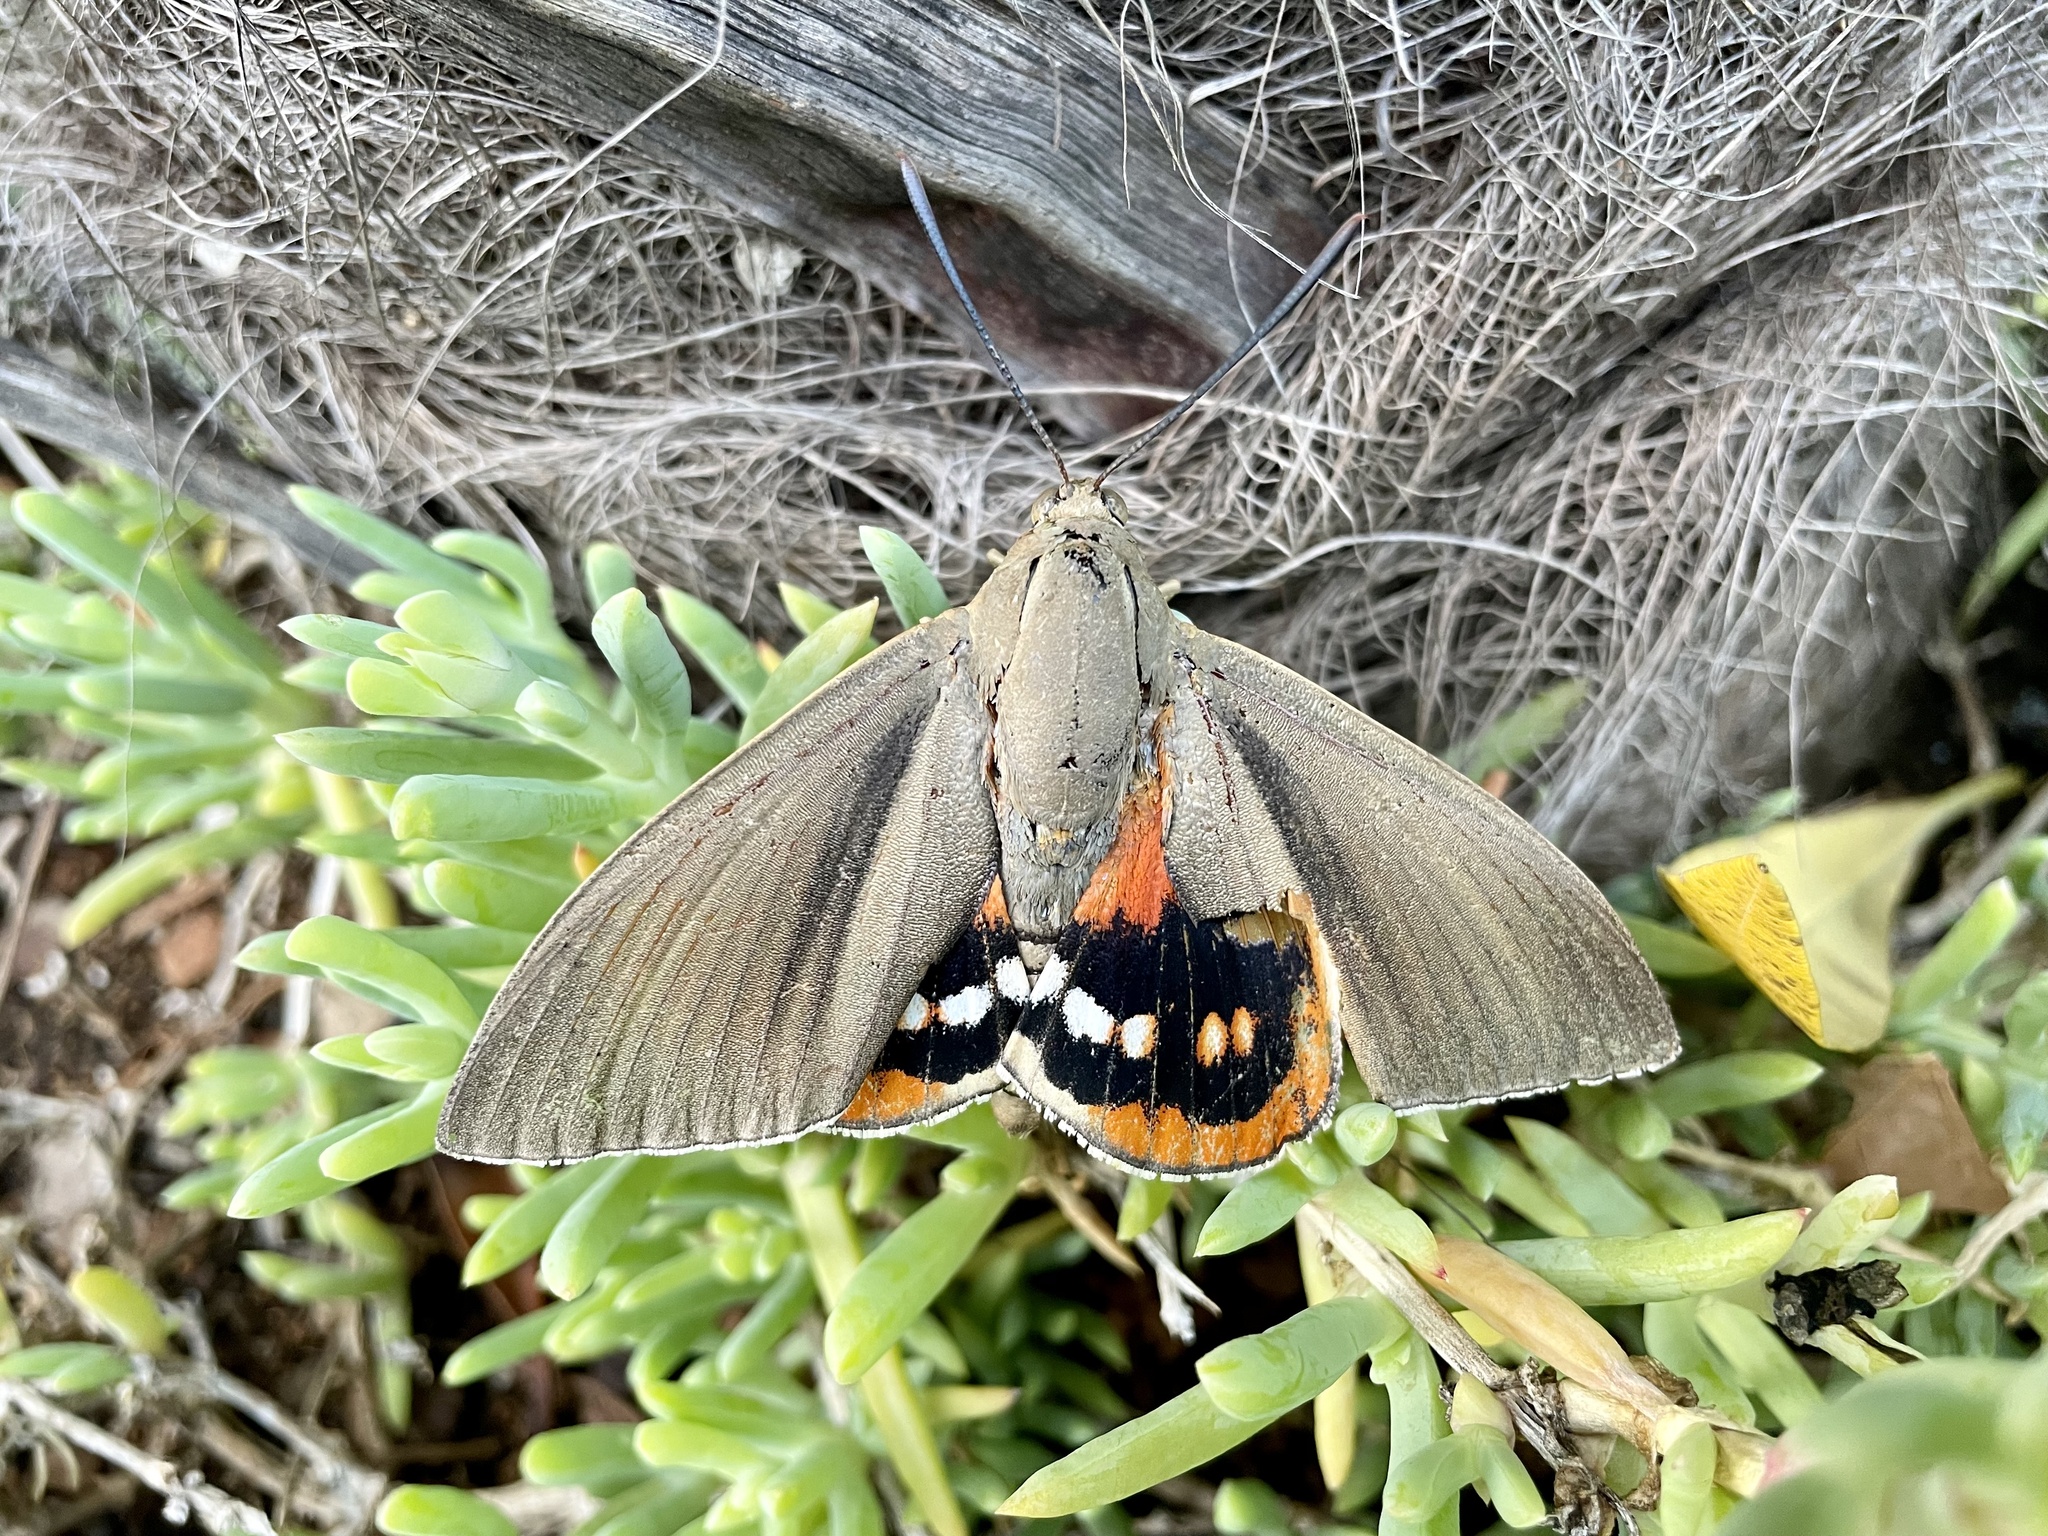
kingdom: Animalia
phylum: Arthropoda
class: Insecta
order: Lepidoptera
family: Castniidae
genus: Paysandisia
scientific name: Paysandisia archon
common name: Palm moth
